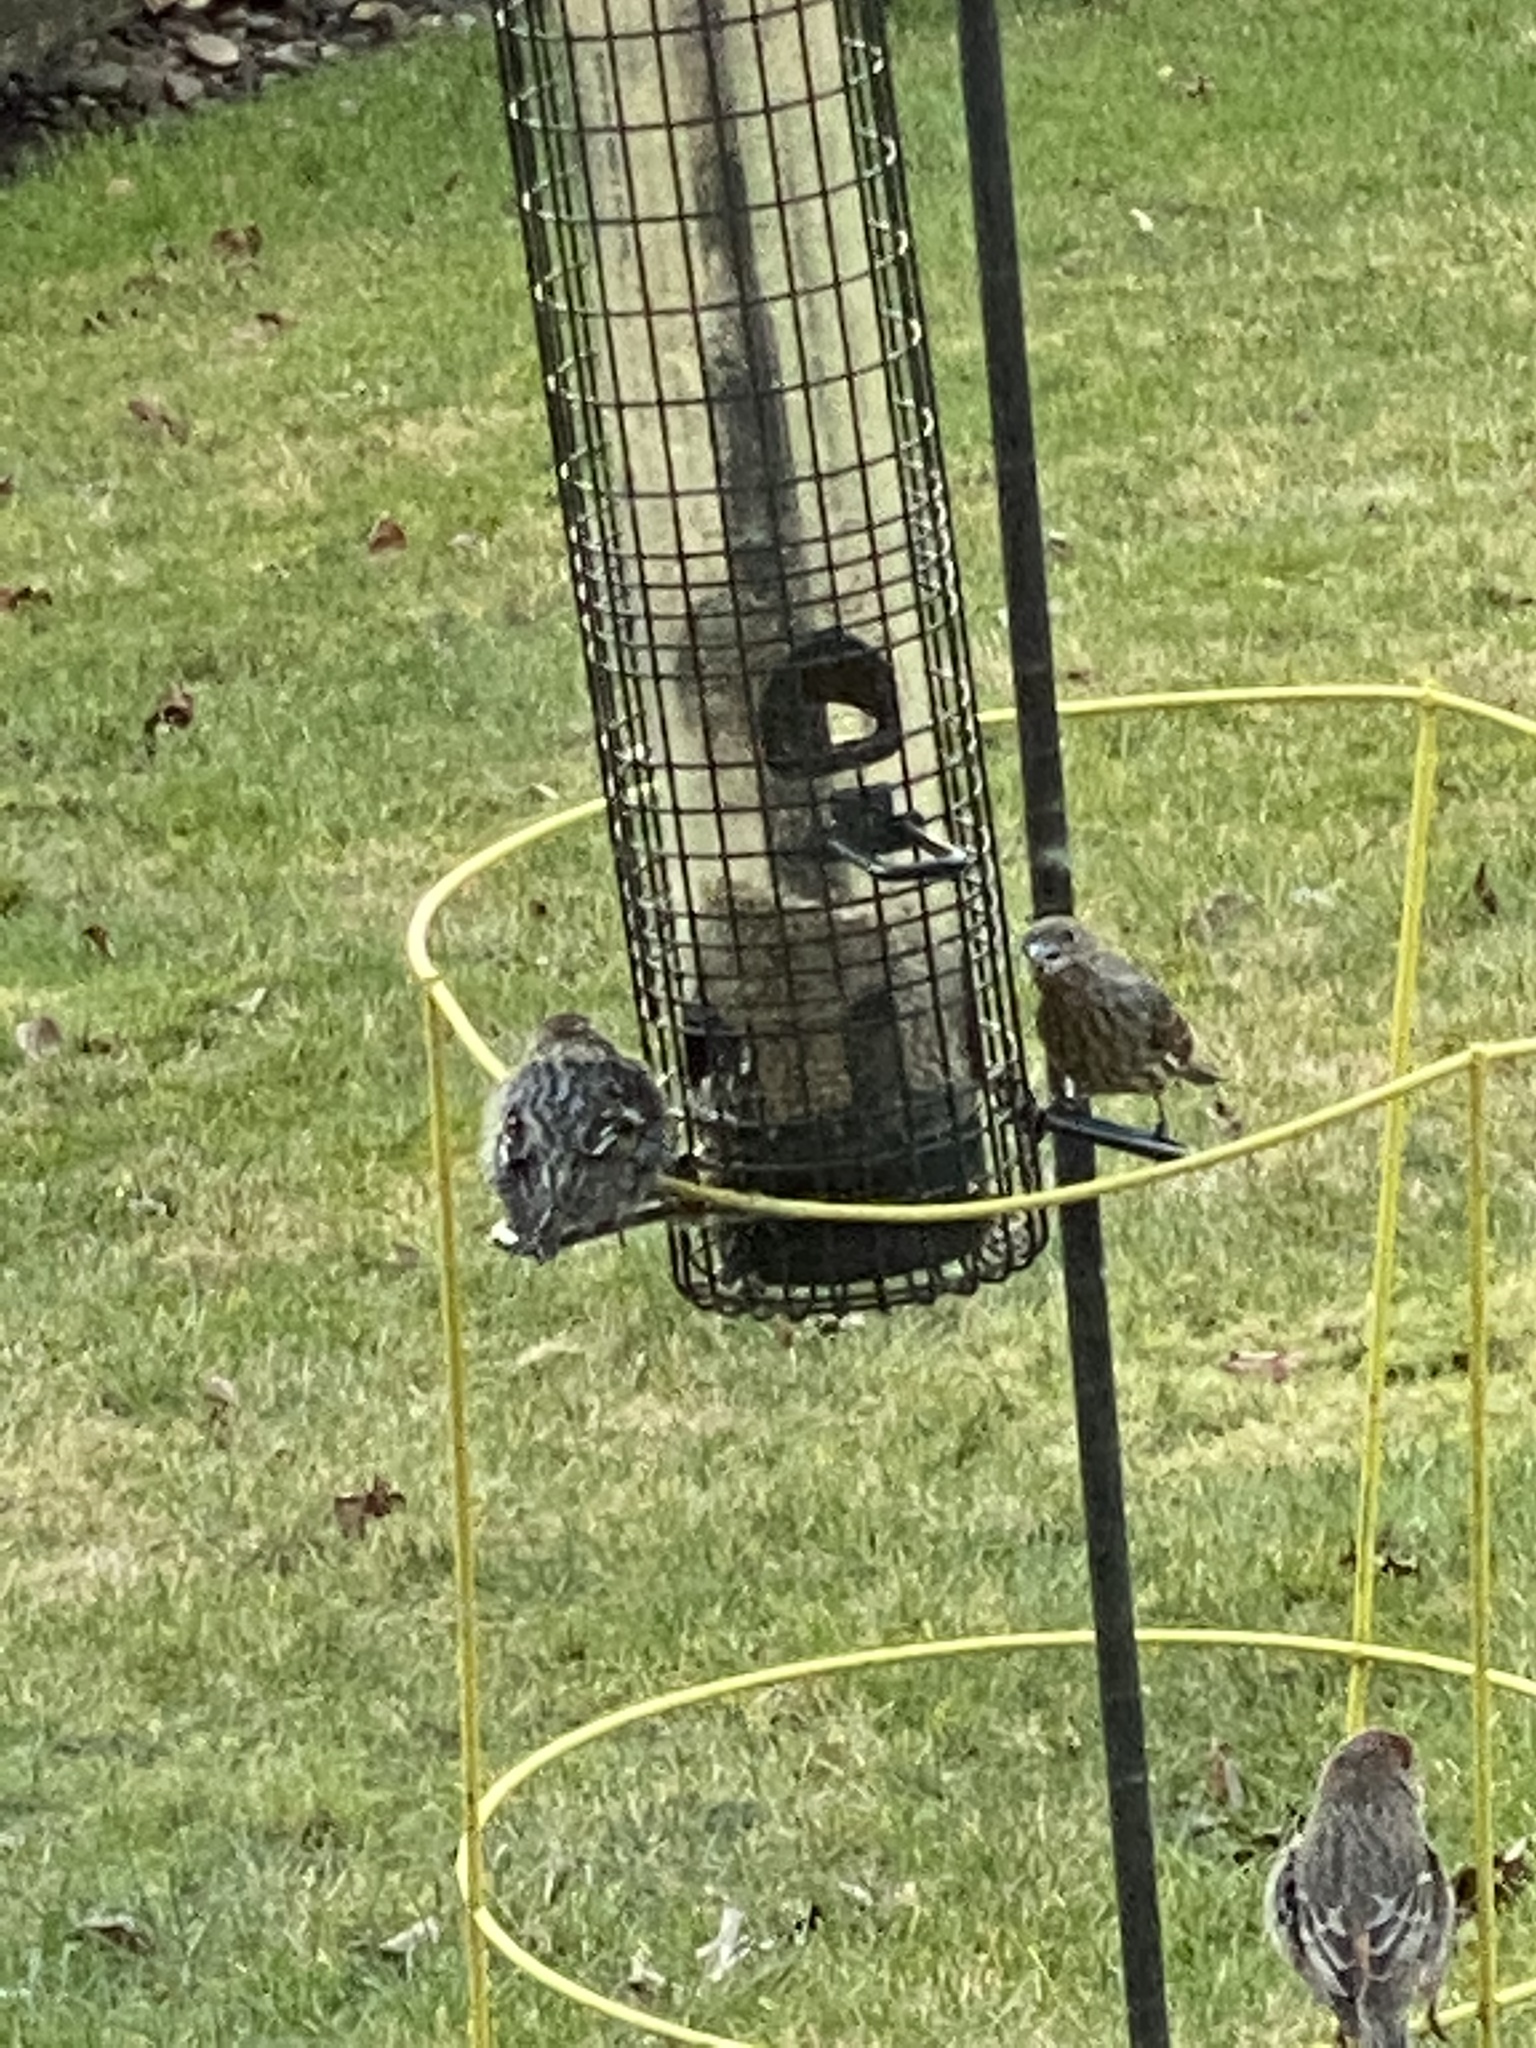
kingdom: Animalia
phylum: Chordata
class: Aves
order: Passeriformes
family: Fringillidae
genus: Spinus
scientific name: Spinus pinus
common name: Pine siskin
